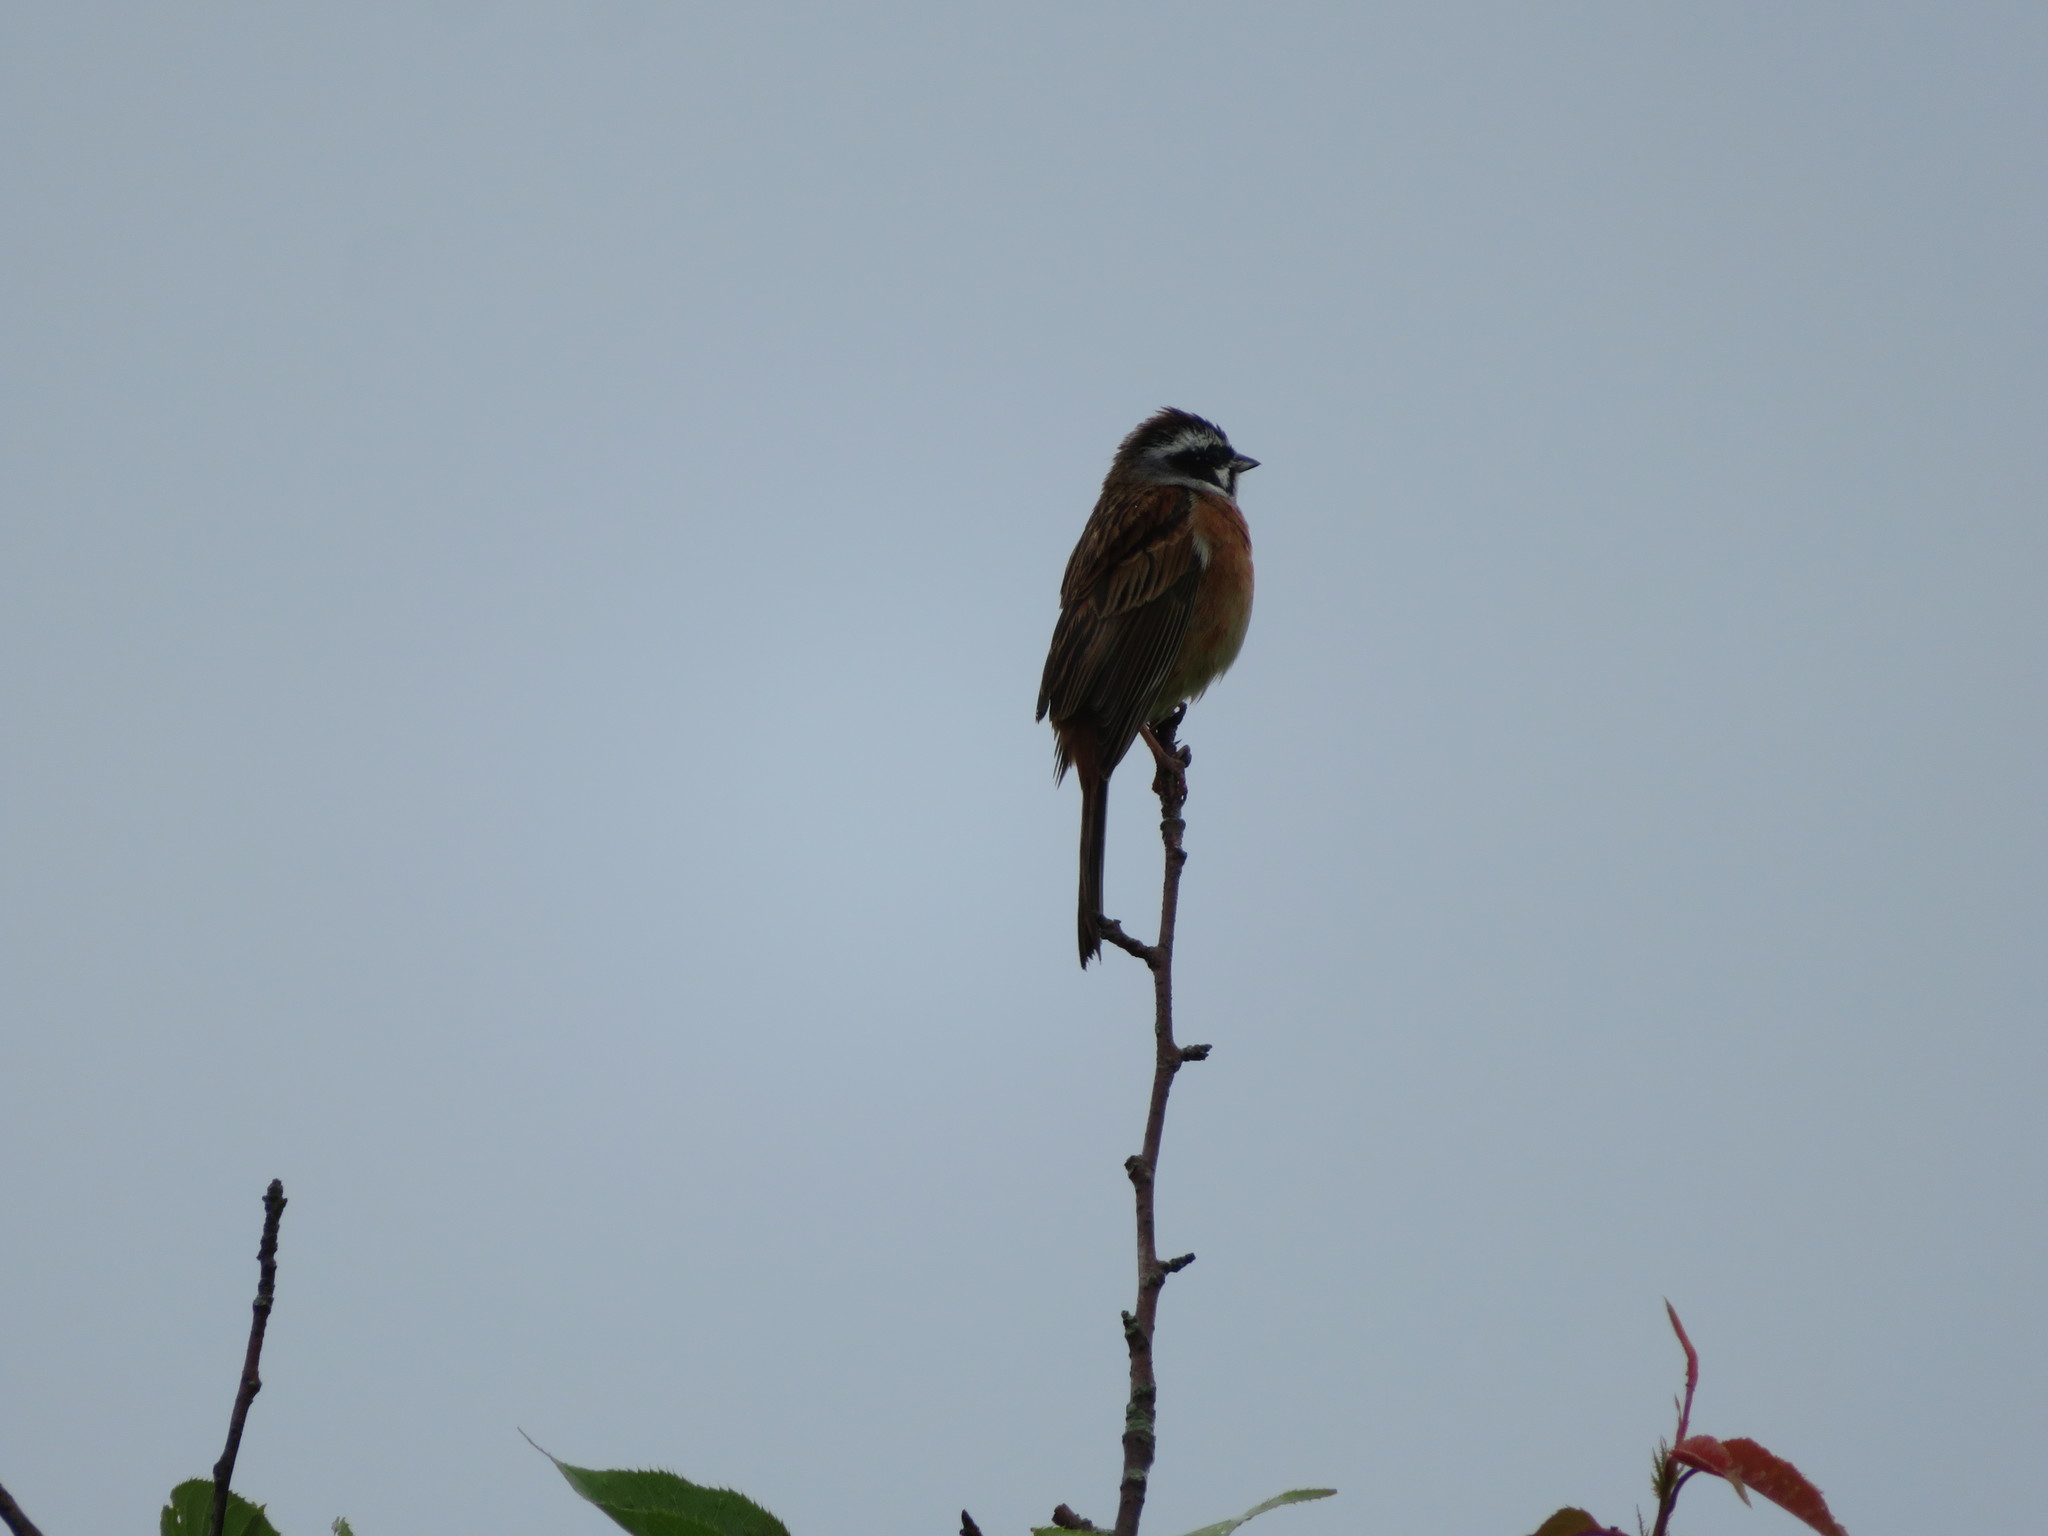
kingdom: Animalia
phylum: Chordata
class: Aves
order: Passeriformes
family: Emberizidae
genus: Emberiza
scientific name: Emberiza cioides
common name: Meadow bunting
